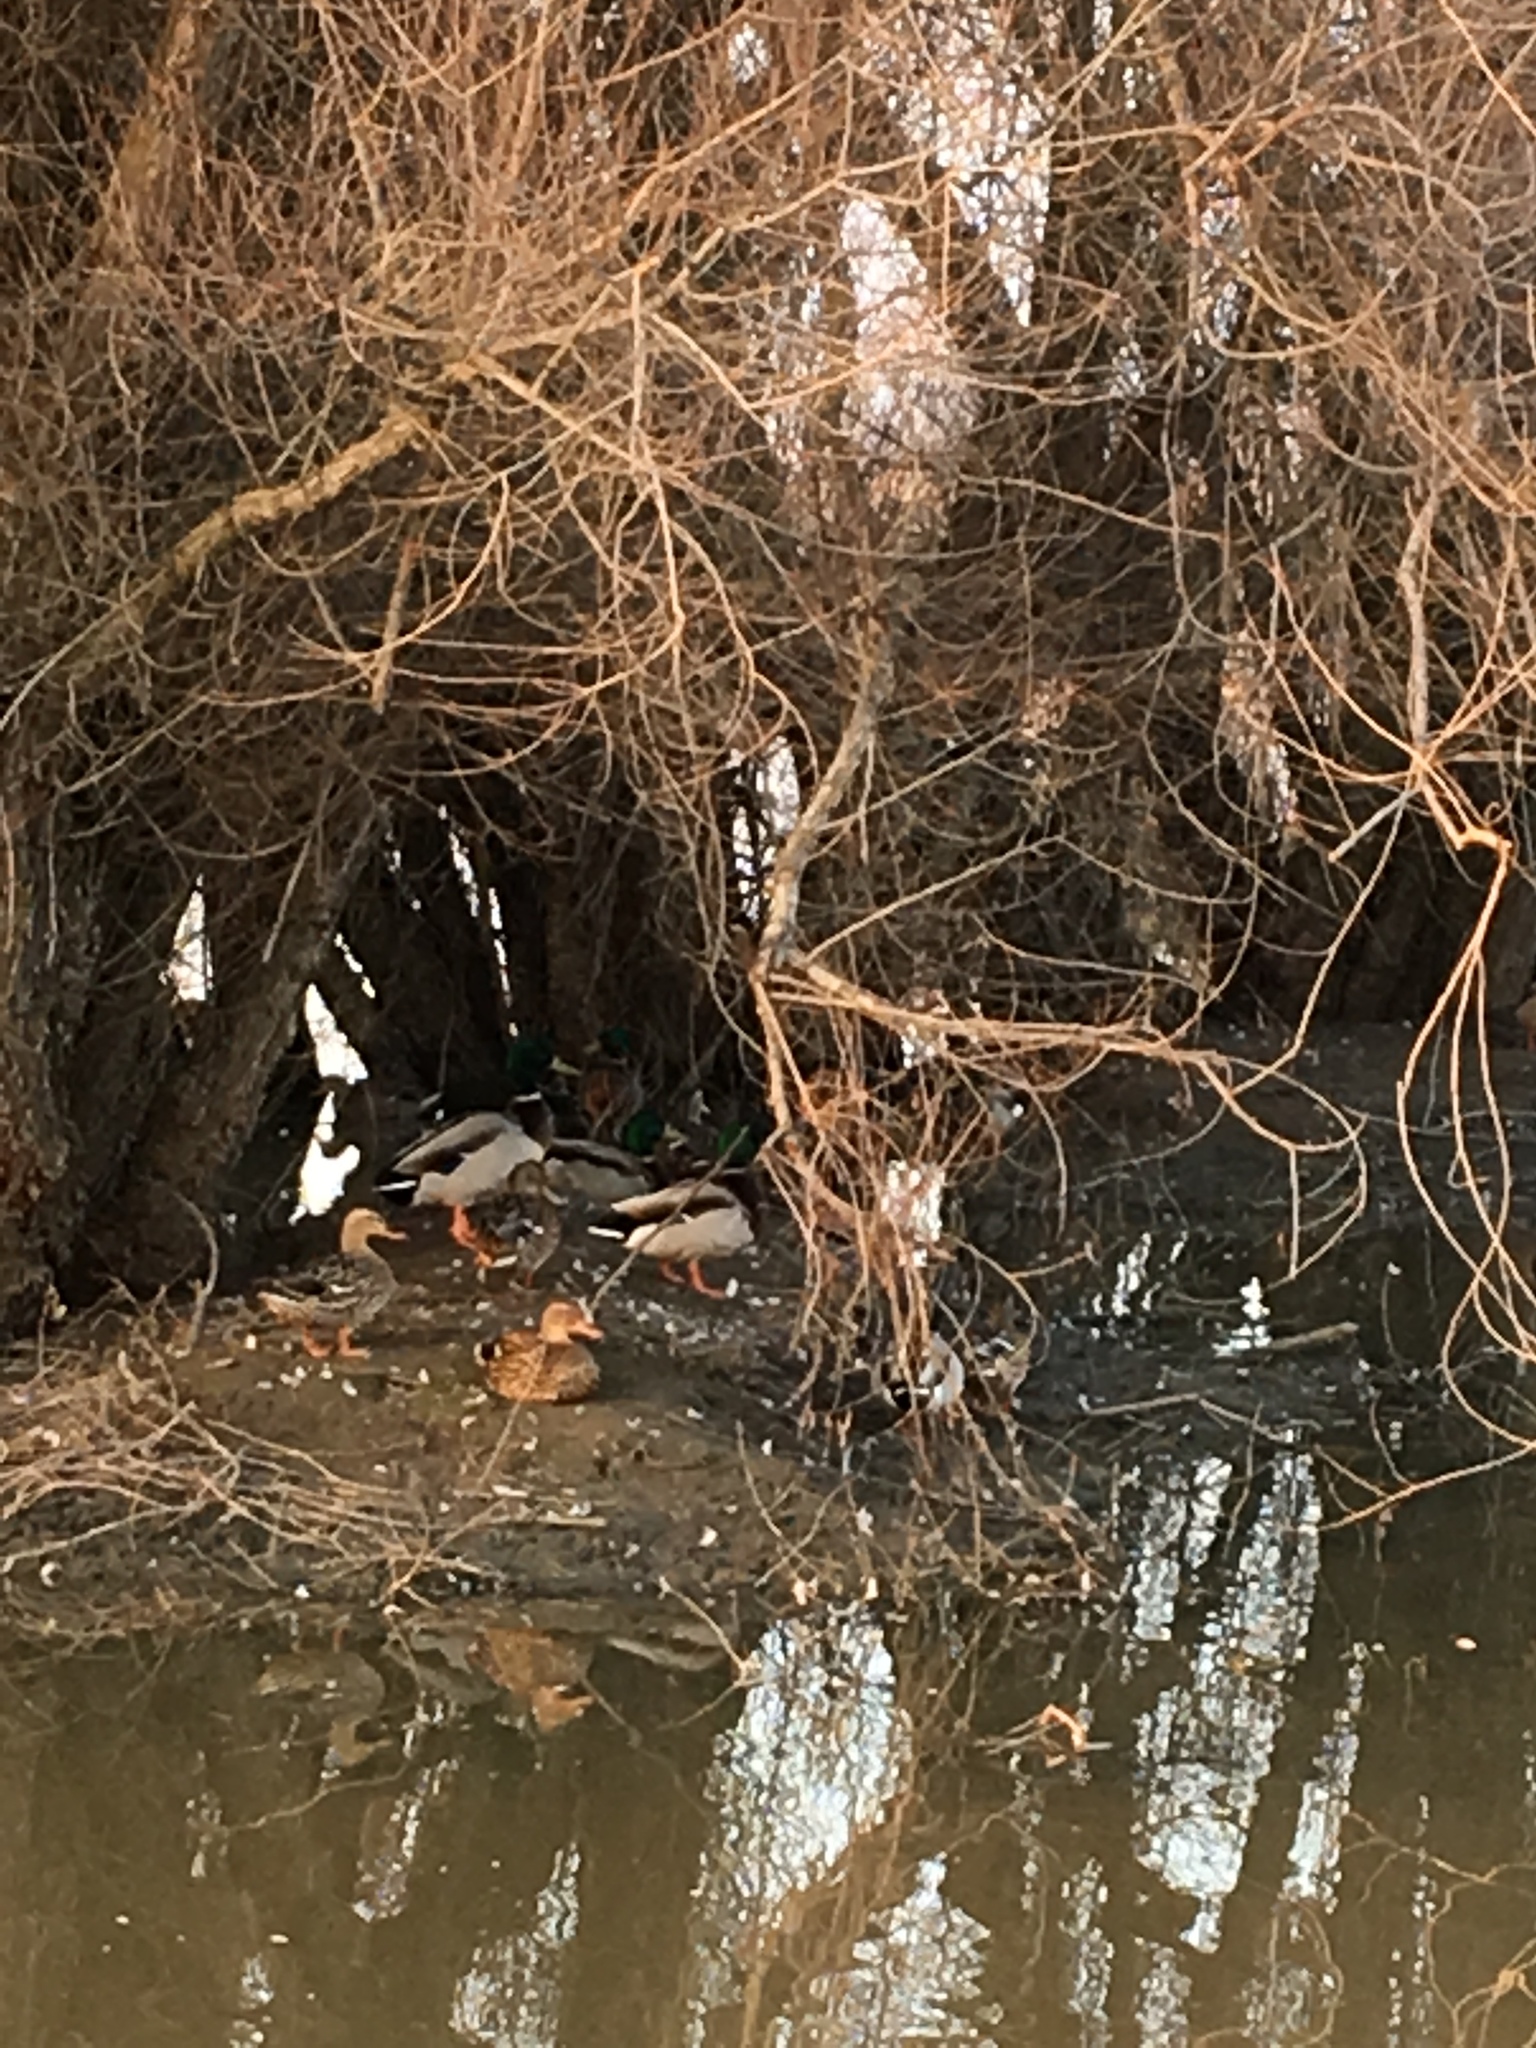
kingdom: Animalia
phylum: Chordata
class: Aves
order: Anseriformes
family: Anatidae
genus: Anas
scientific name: Anas platyrhynchos
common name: Mallard
